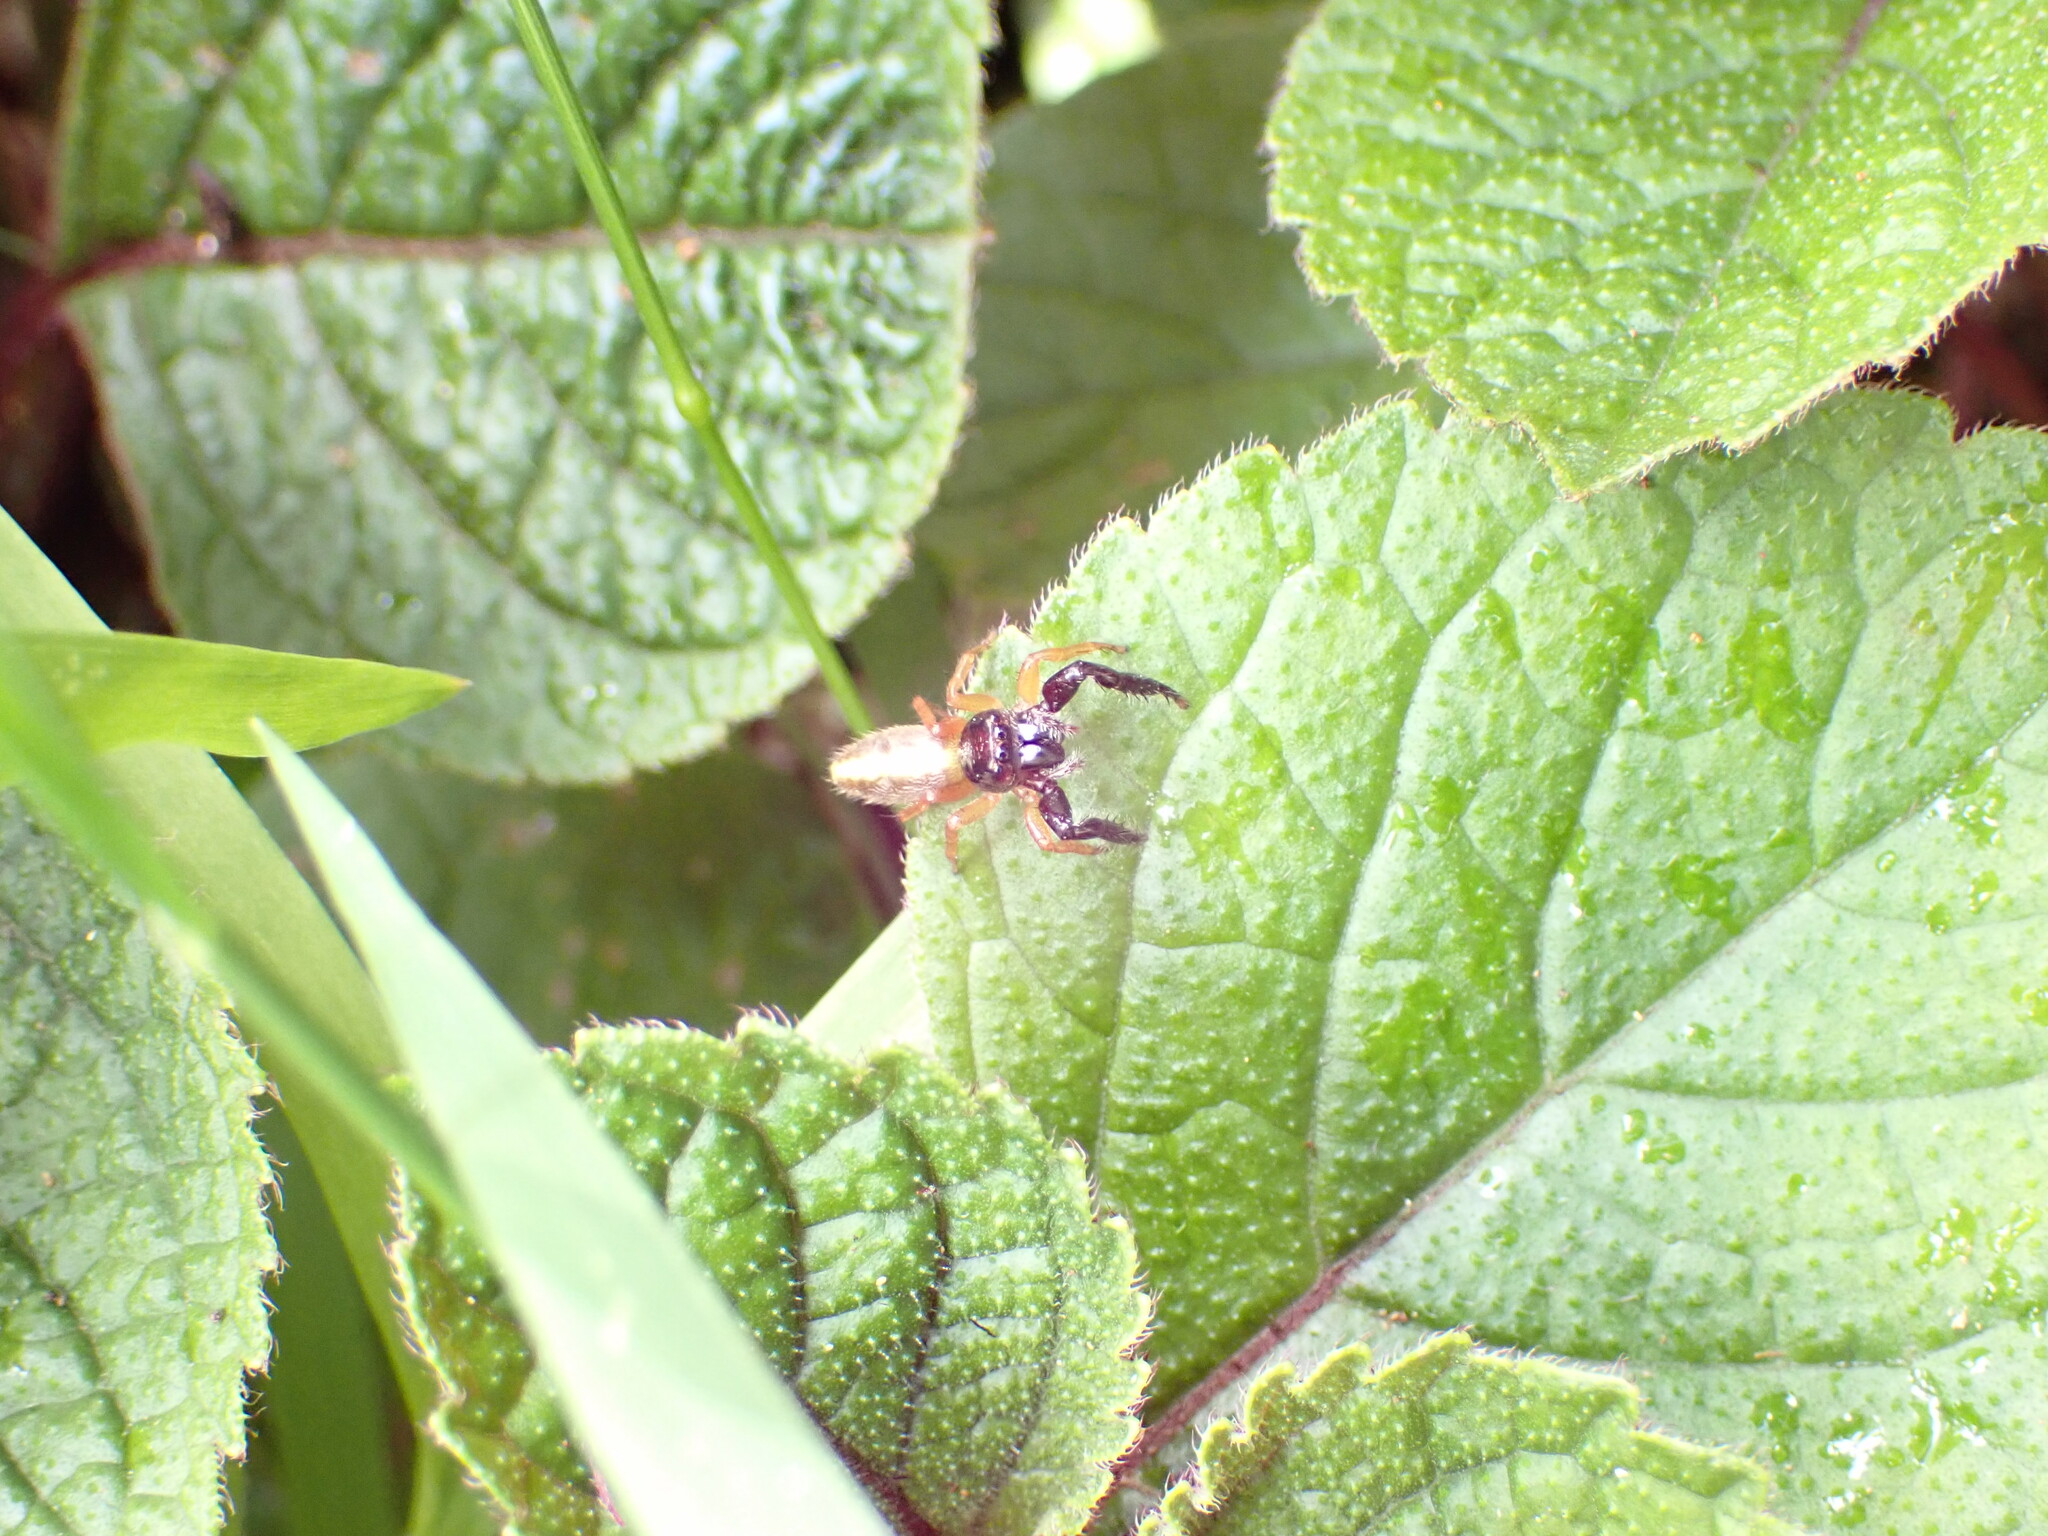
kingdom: Animalia
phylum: Arthropoda
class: Arachnida
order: Araneae
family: Salticidae
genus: Trite
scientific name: Trite planiceps
